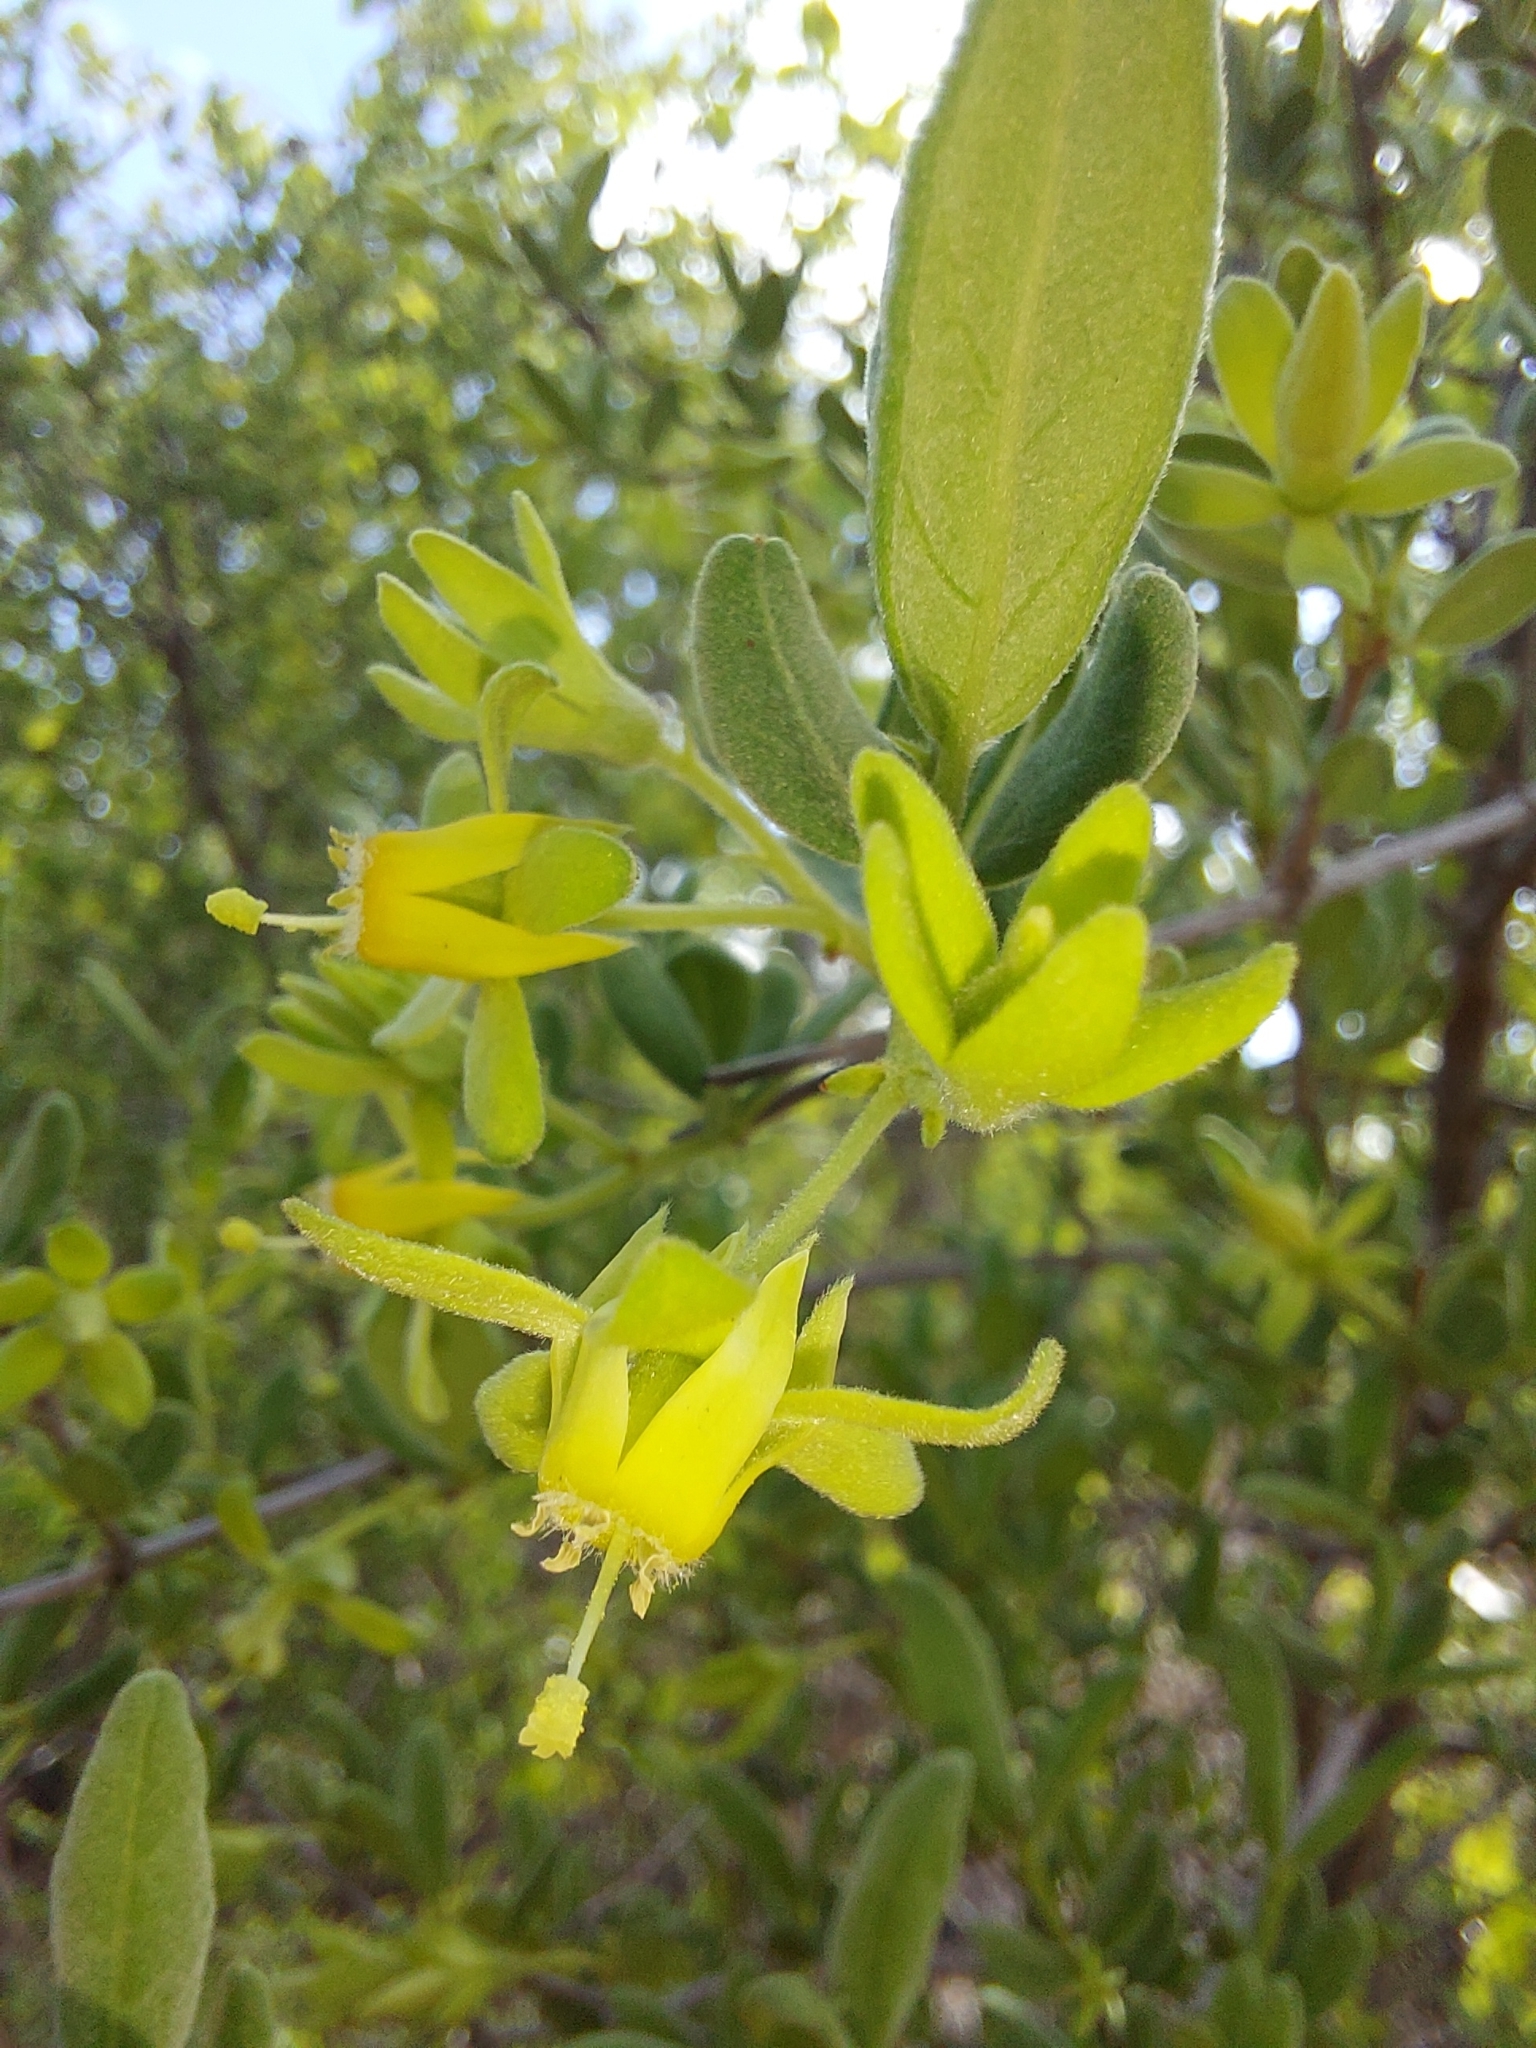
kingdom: Plantae
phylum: Tracheophyta
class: Magnoliopsida
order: Gentianales
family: Rubiaceae
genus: Vangueria
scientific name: Vangueria triflora
